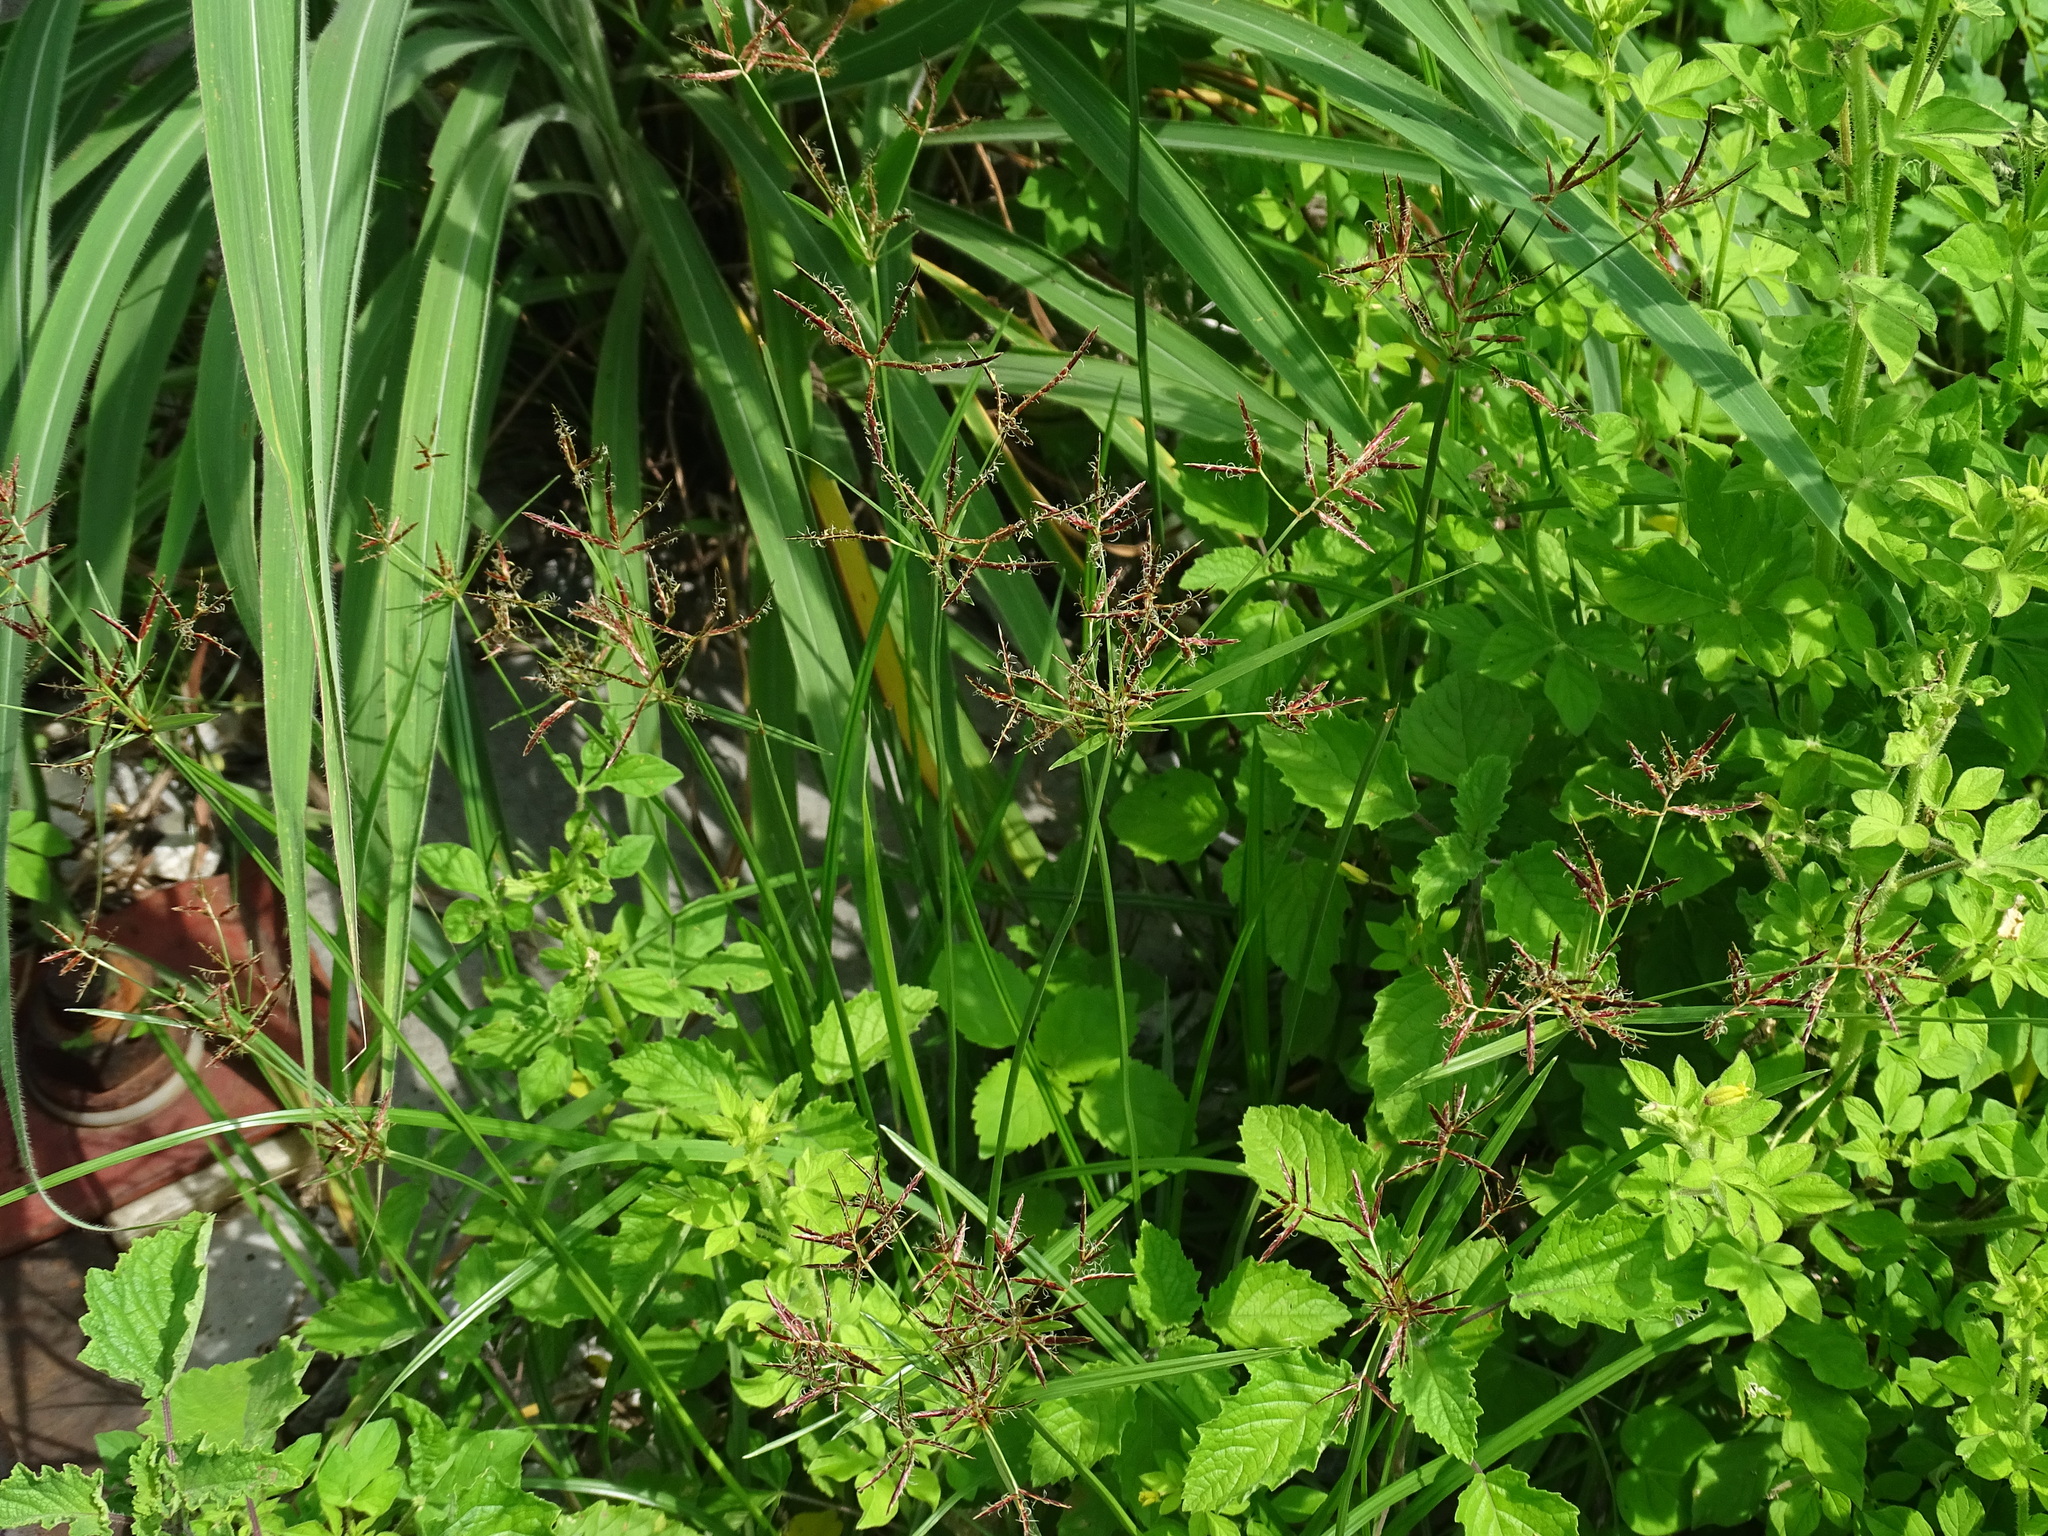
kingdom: Plantae
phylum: Tracheophyta
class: Liliopsida
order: Poales
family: Cyperaceae
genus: Cyperus
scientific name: Cyperus rotundus
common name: Nutgrass
